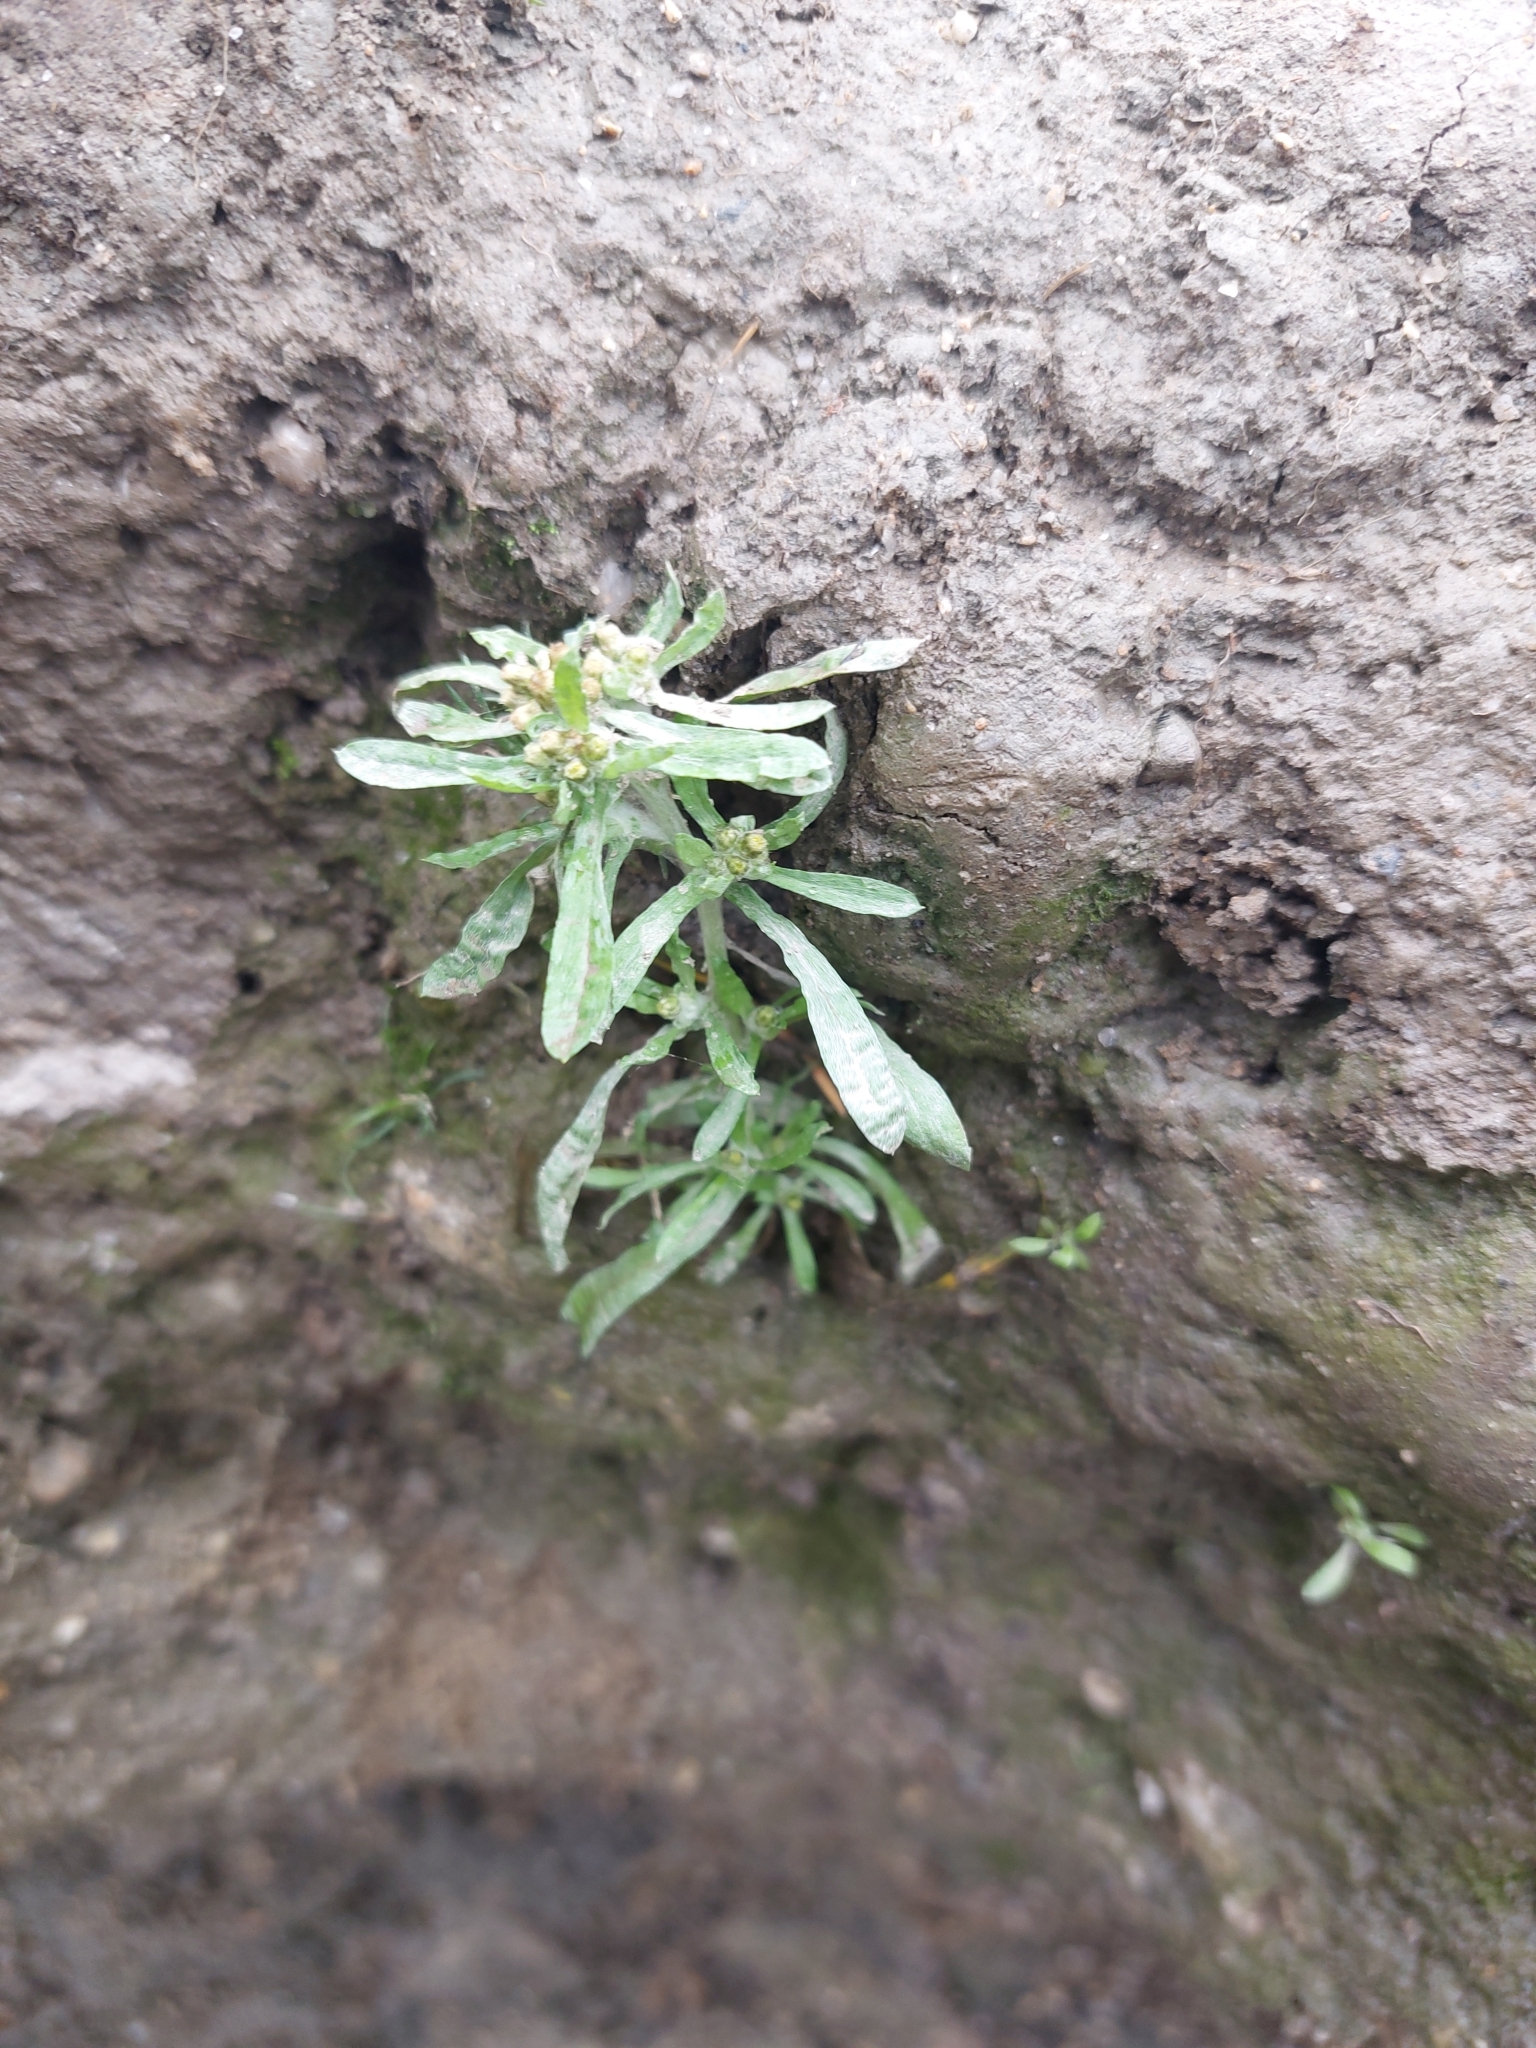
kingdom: Plantae
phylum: Tracheophyta
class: Magnoliopsida
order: Asterales
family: Asteraceae
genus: Gnaphalium
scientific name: Gnaphalium uliginosum
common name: Marsh cudweed
